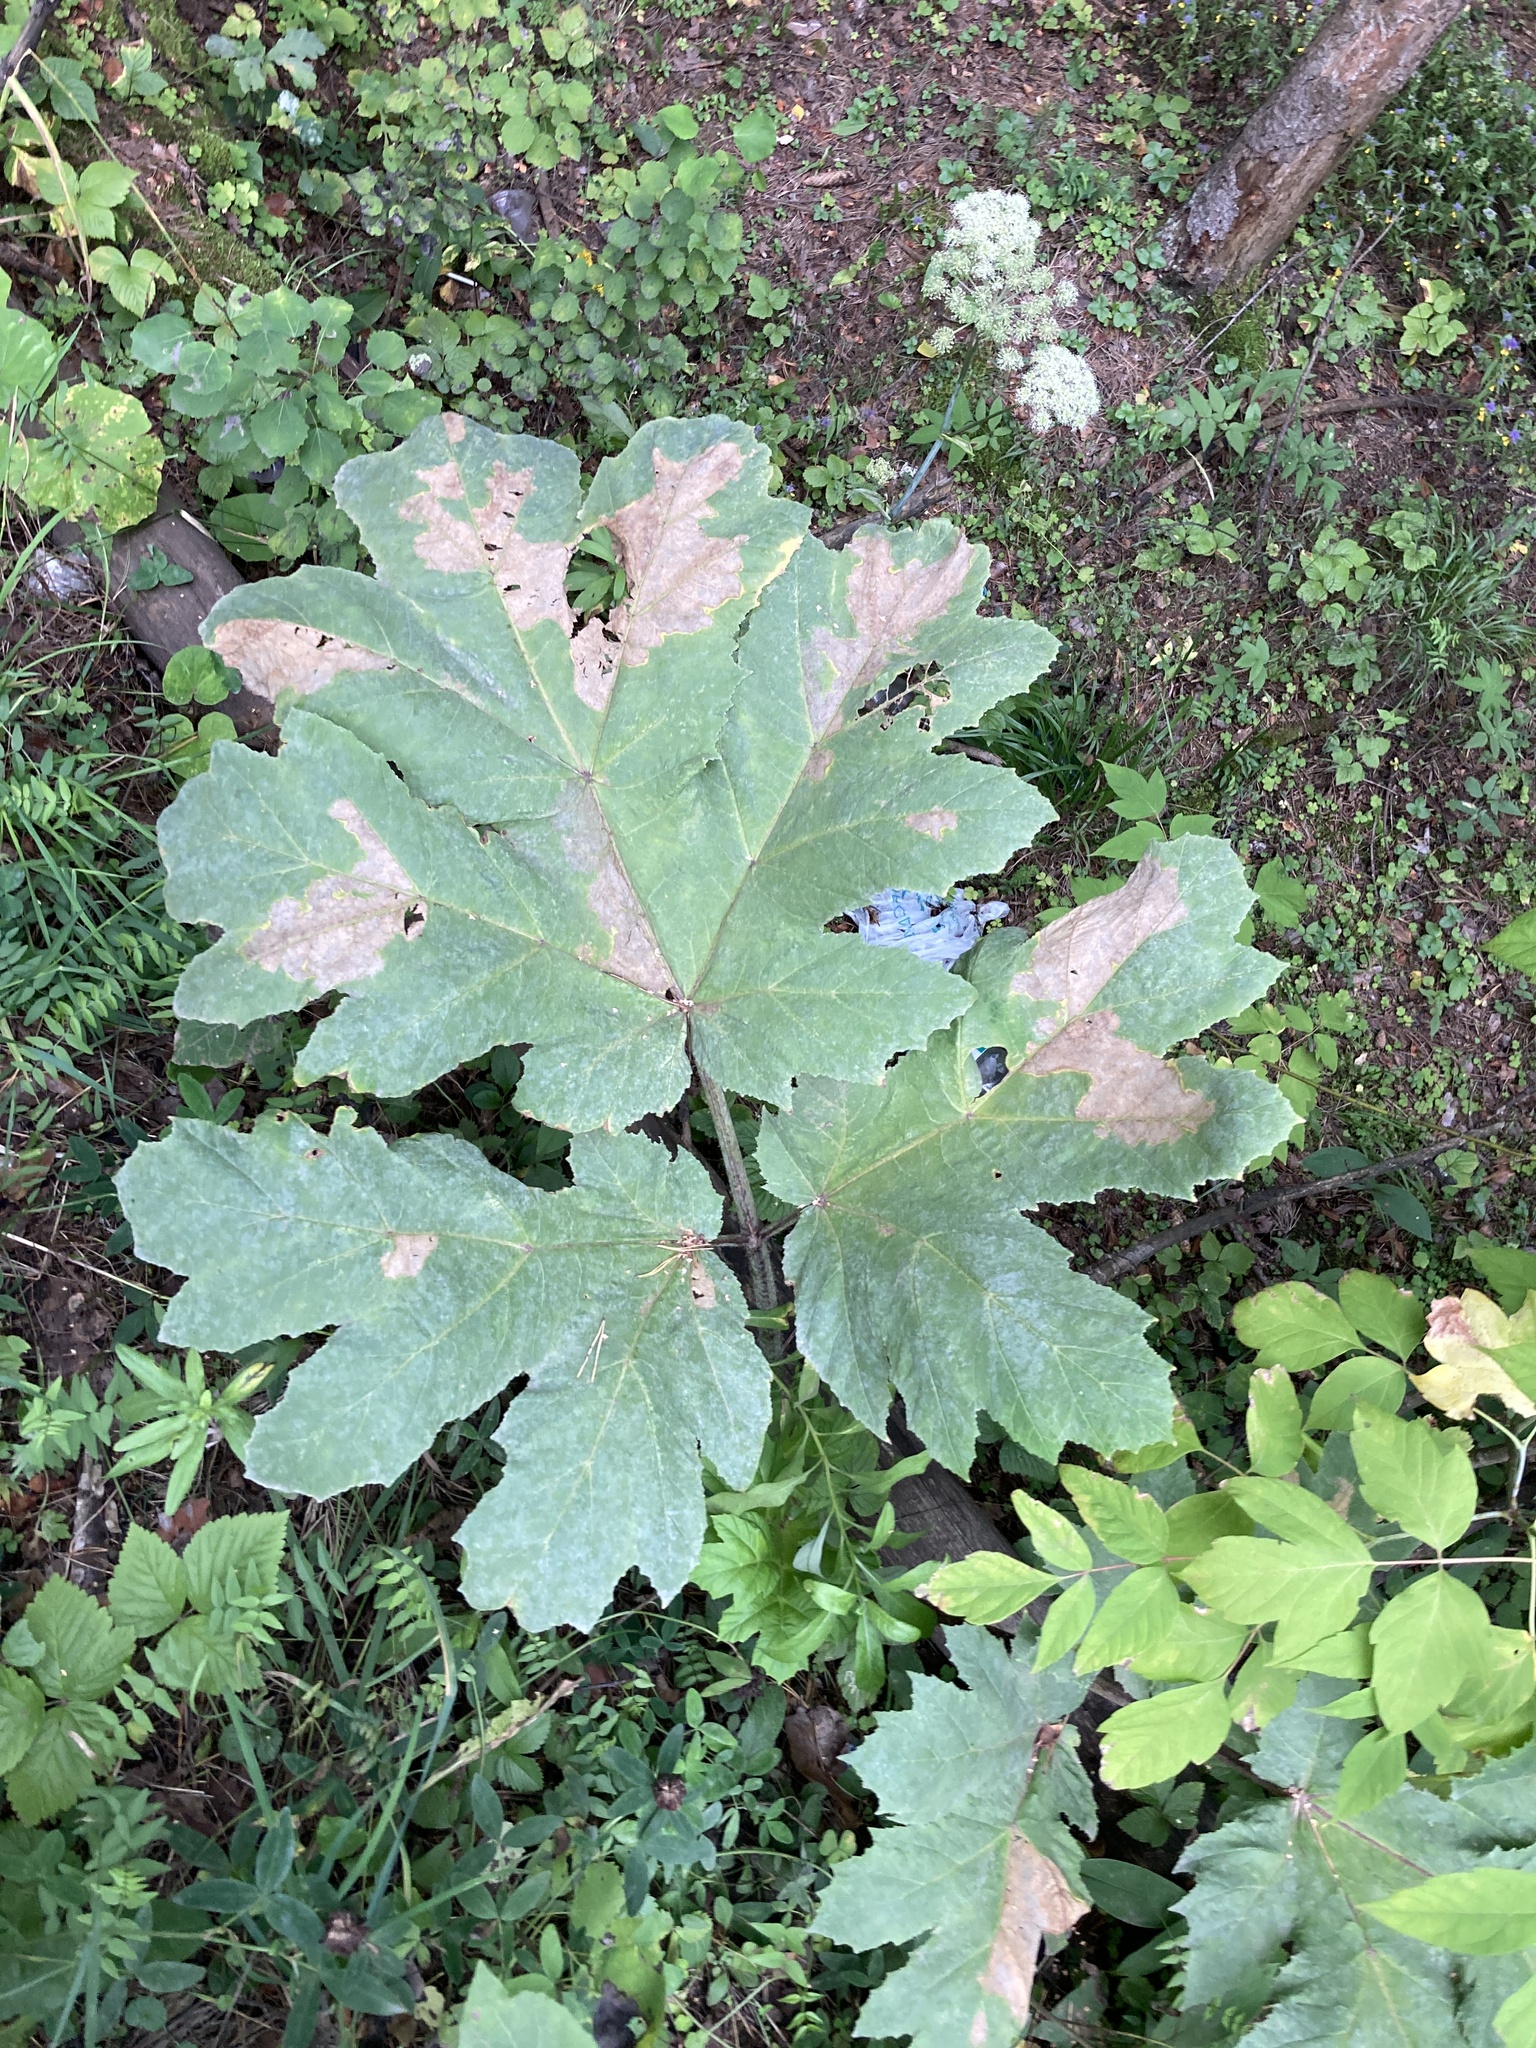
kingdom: Plantae
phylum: Tracheophyta
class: Magnoliopsida
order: Apiales
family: Apiaceae
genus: Heracleum
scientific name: Heracleum sosnowskyi
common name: Sosnowsky's hogweed
